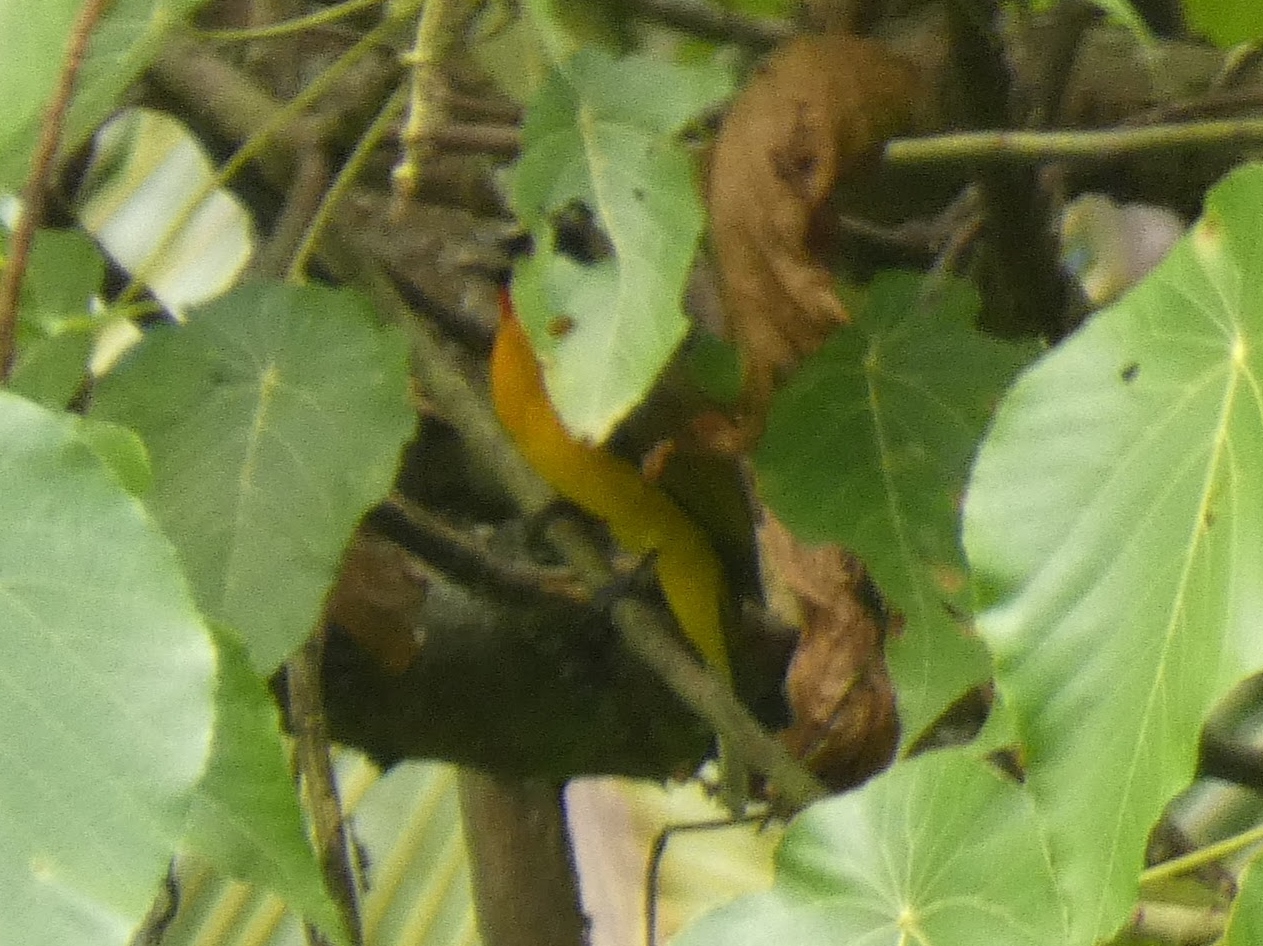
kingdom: Animalia
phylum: Chordata
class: Aves
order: Passeriformes
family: Pycnonotidae
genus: Pycnonotus
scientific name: Pycnonotus dispar
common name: Ruby-throated bulbul
